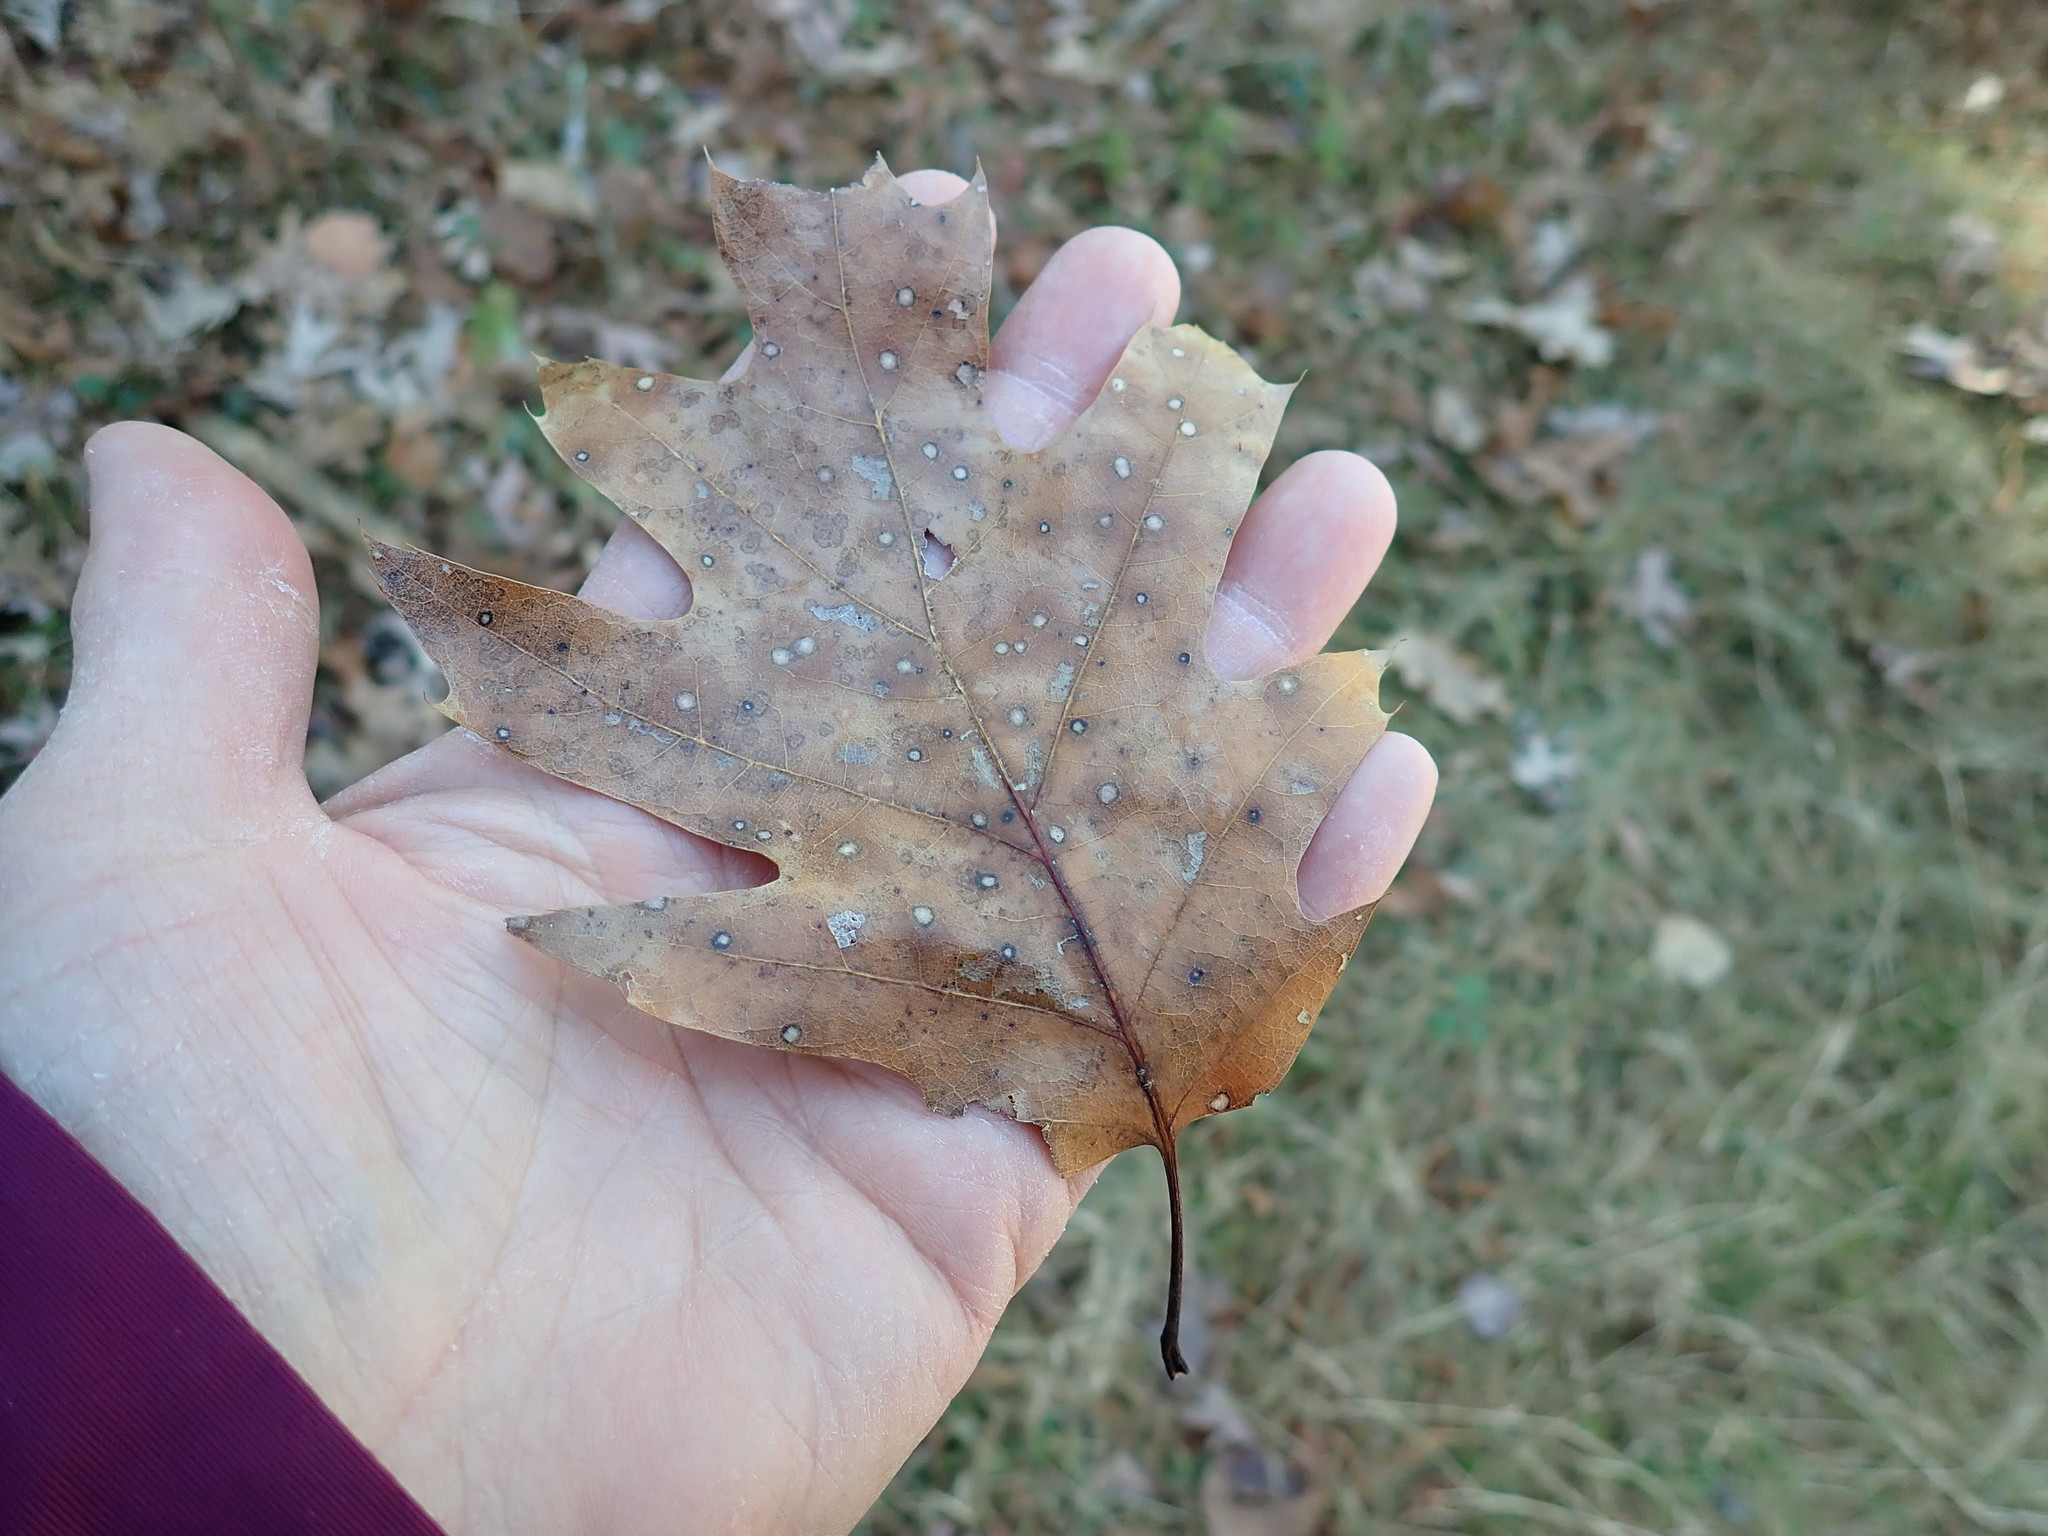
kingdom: Plantae
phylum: Tracheophyta
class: Magnoliopsida
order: Fagales
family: Fagaceae
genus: Quercus
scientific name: Quercus rubra
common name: Red oak
